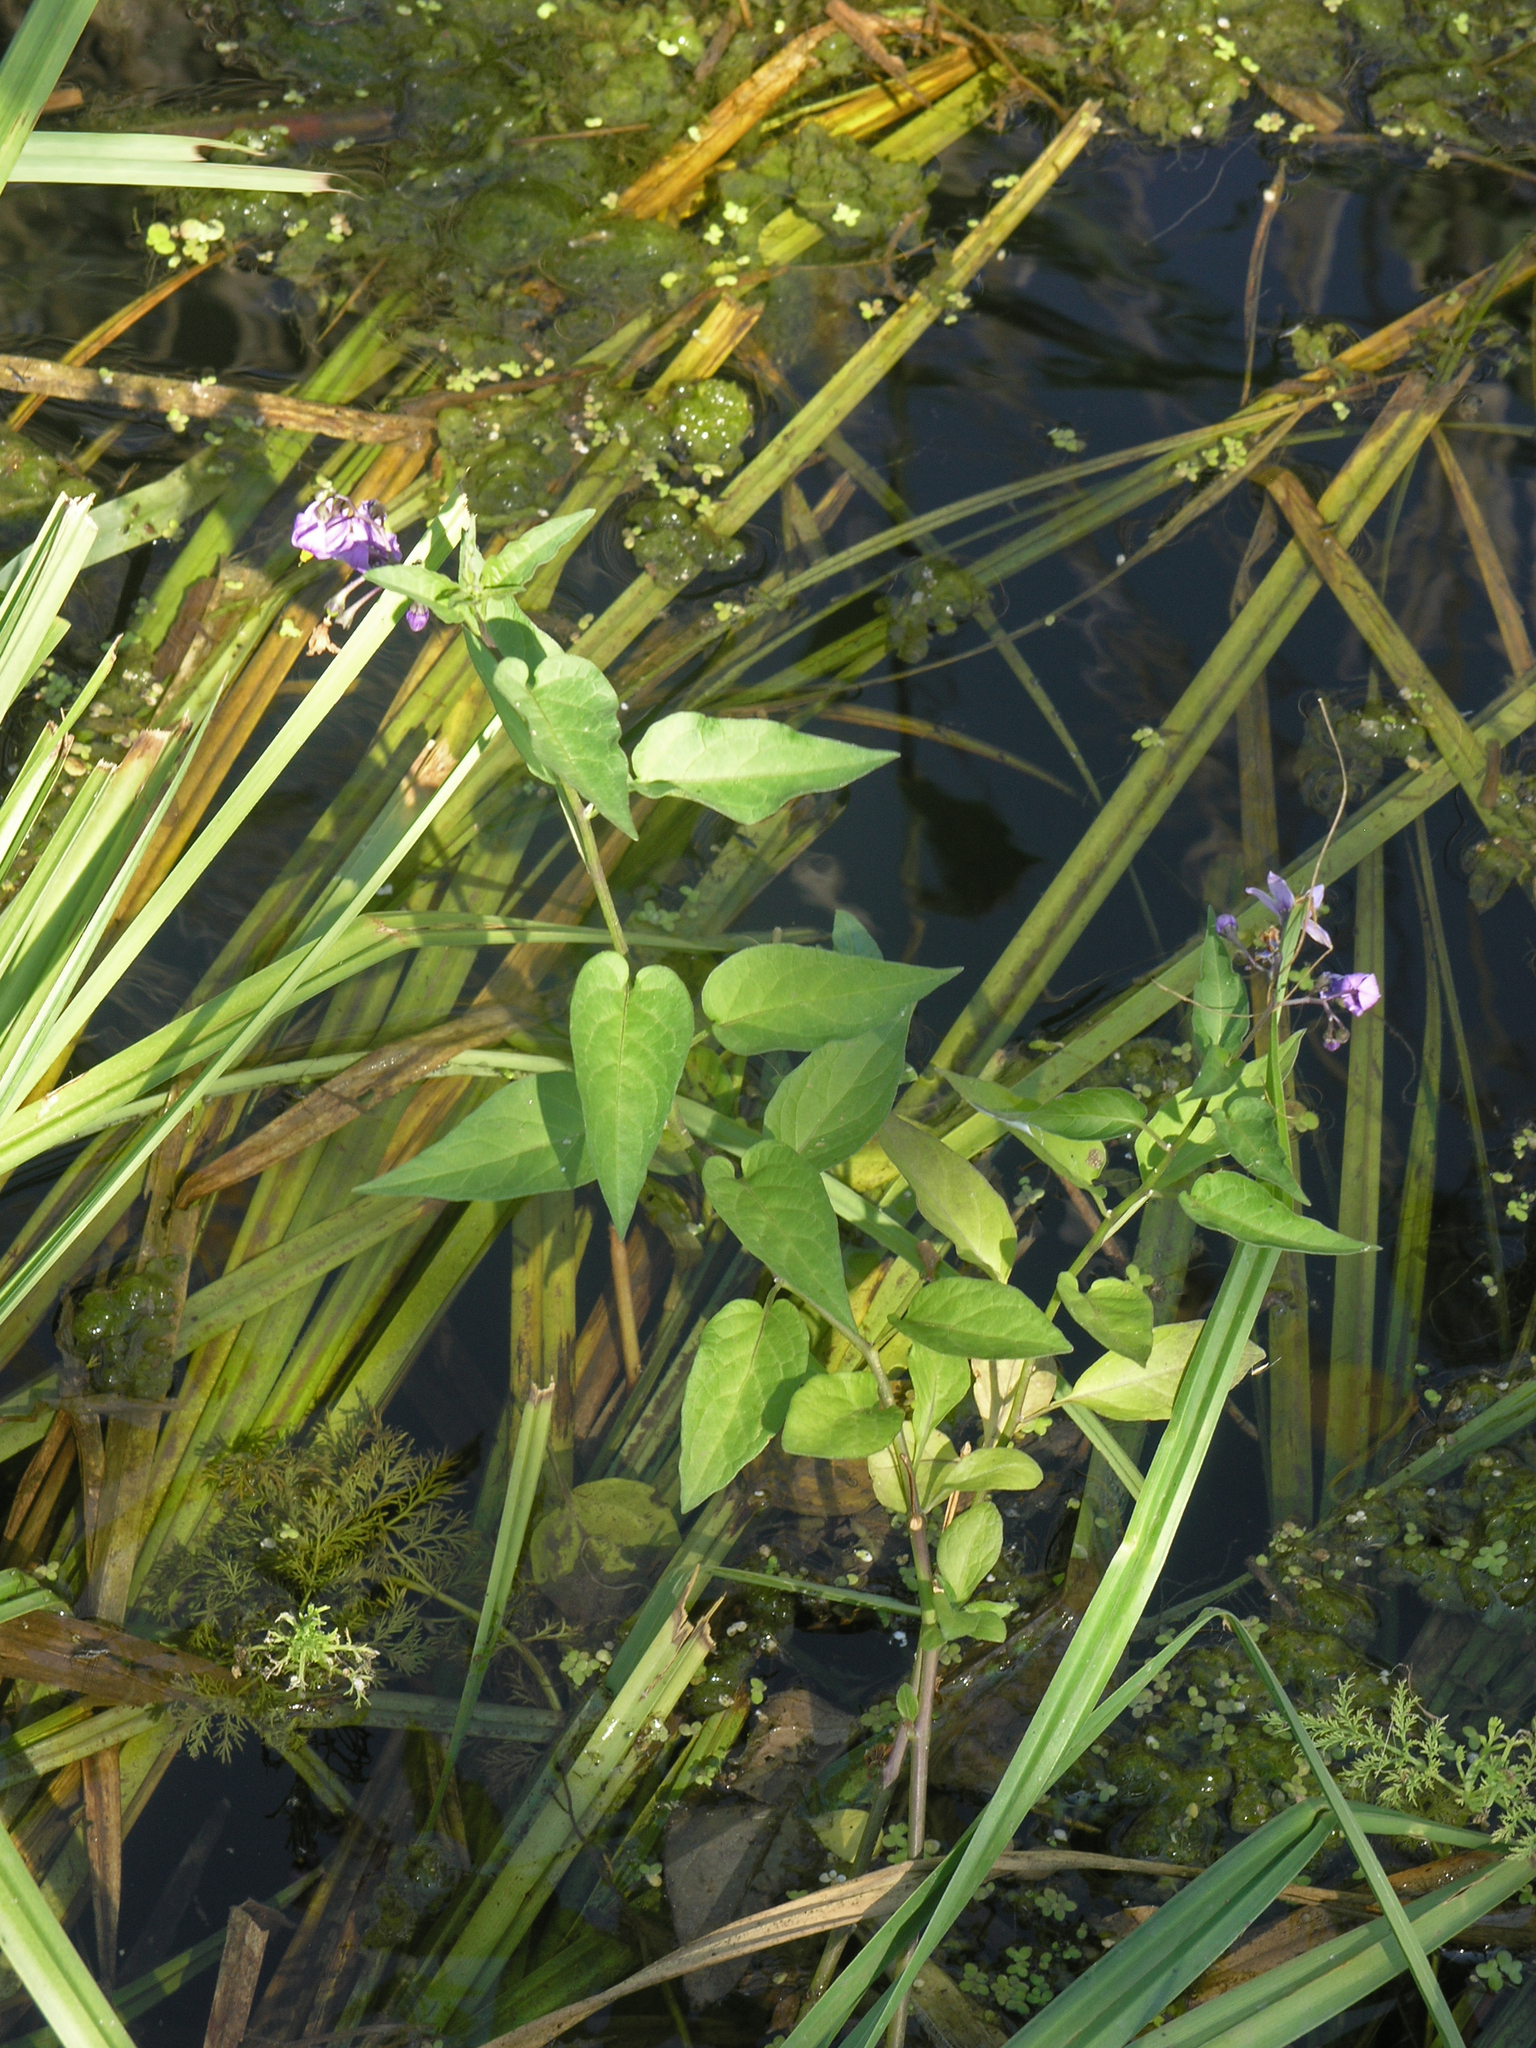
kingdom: Plantae
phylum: Tracheophyta
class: Magnoliopsida
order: Solanales
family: Solanaceae
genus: Solanum
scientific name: Solanum dulcamara
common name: Climbing nightshade
